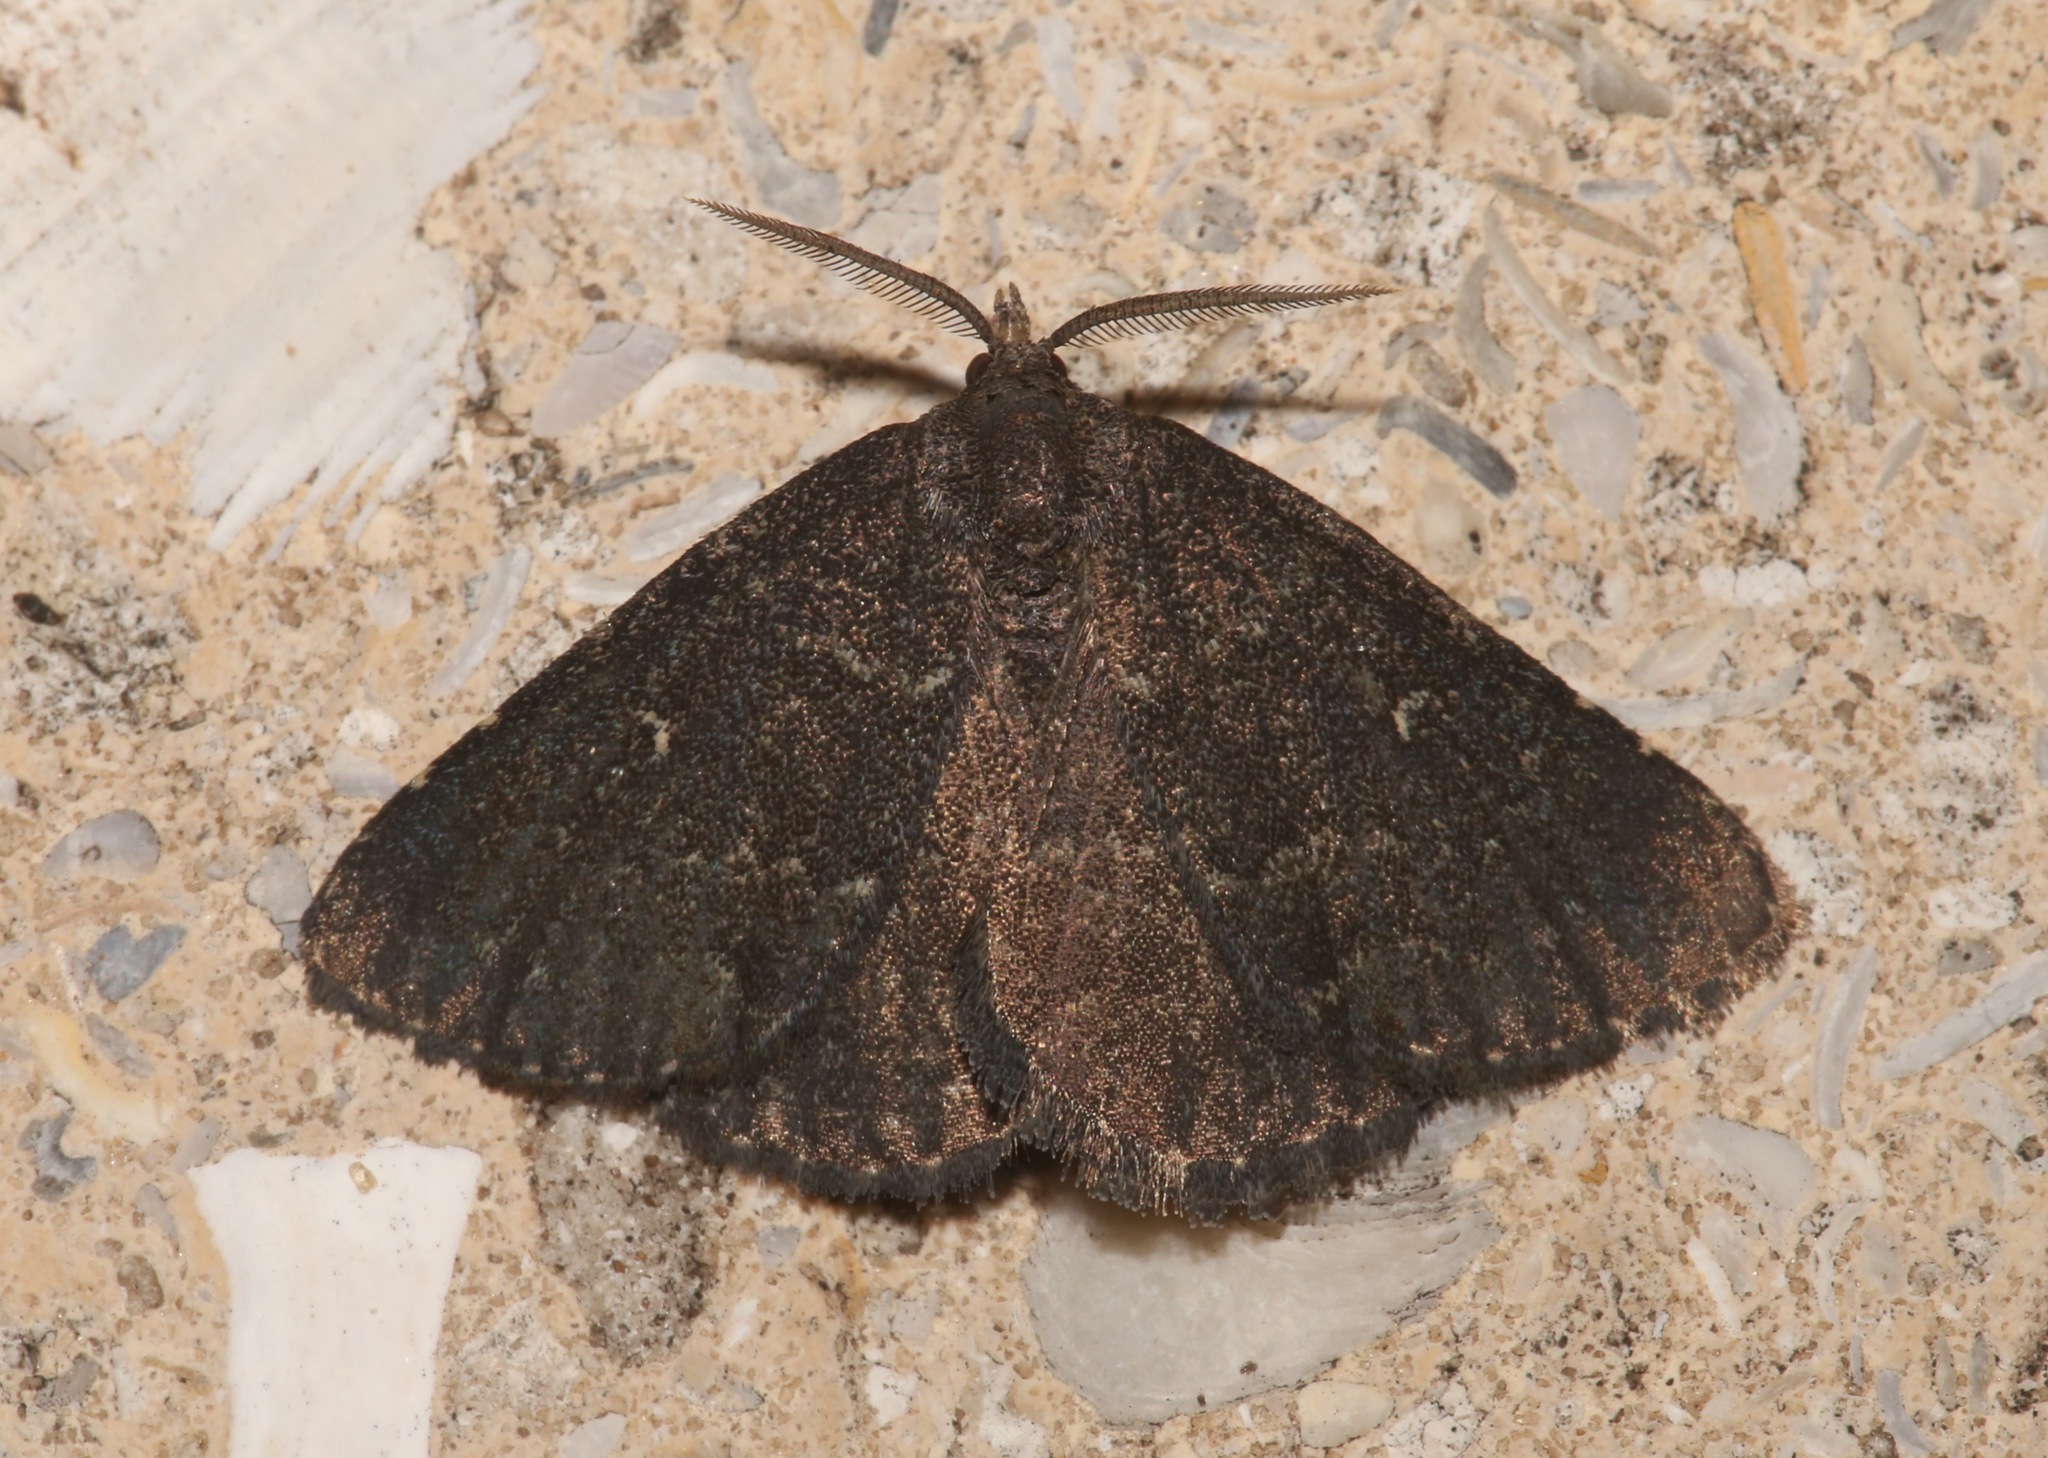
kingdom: Animalia
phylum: Arthropoda
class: Insecta
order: Lepidoptera
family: Erebidae
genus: Prosoparia
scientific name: Prosoparia floridana
